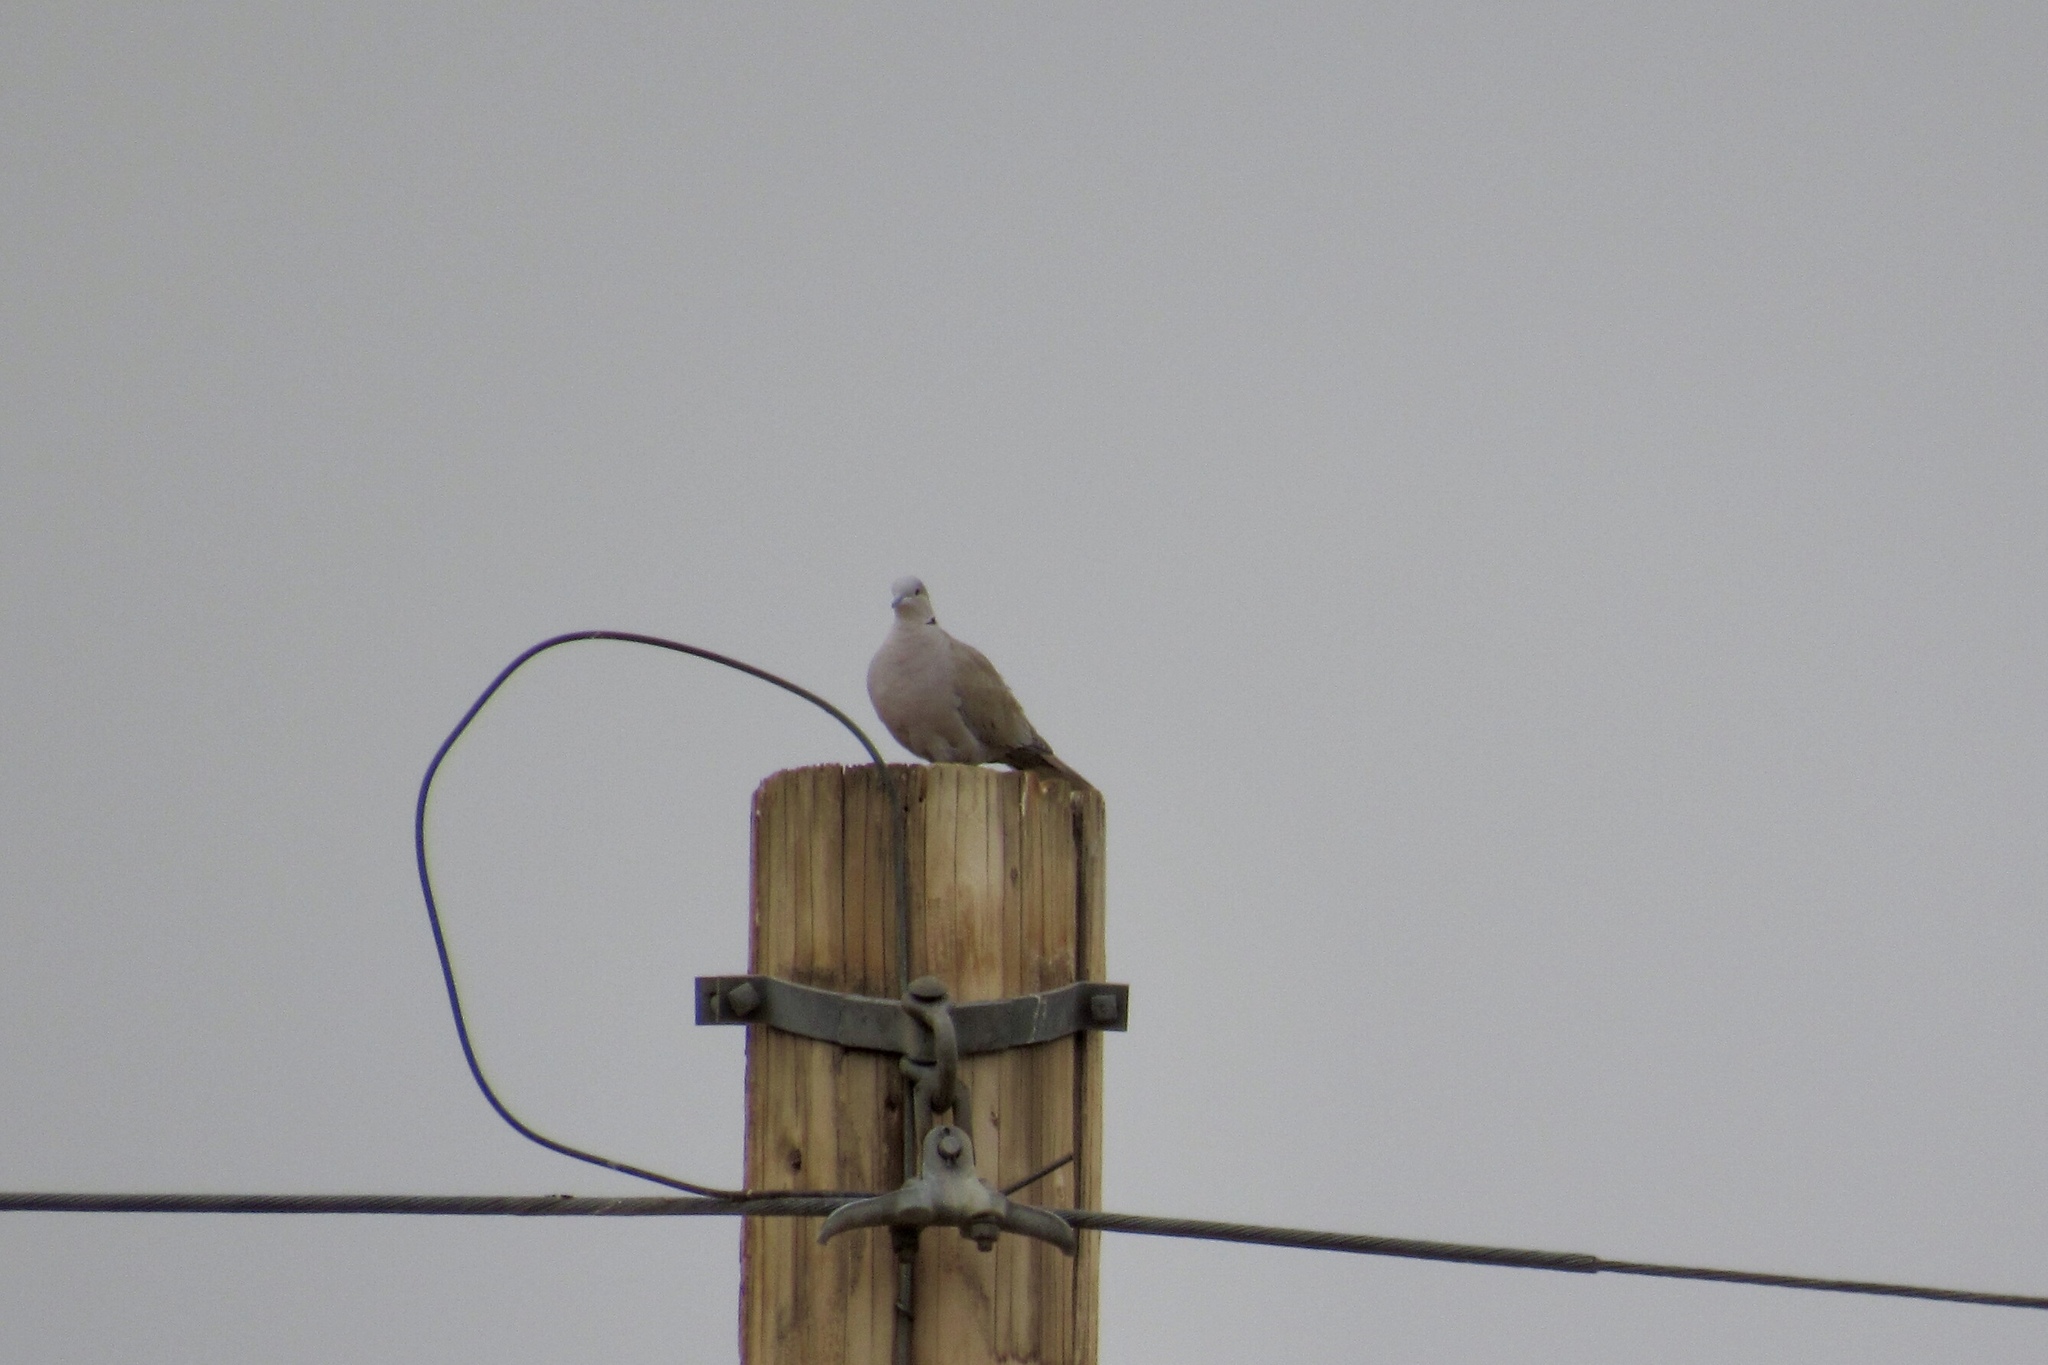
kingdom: Animalia
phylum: Chordata
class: Aves
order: Columbiformes
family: Columbidae
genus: Streptopelia
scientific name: Streptopelia decaocto
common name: Eurasian collared dove
